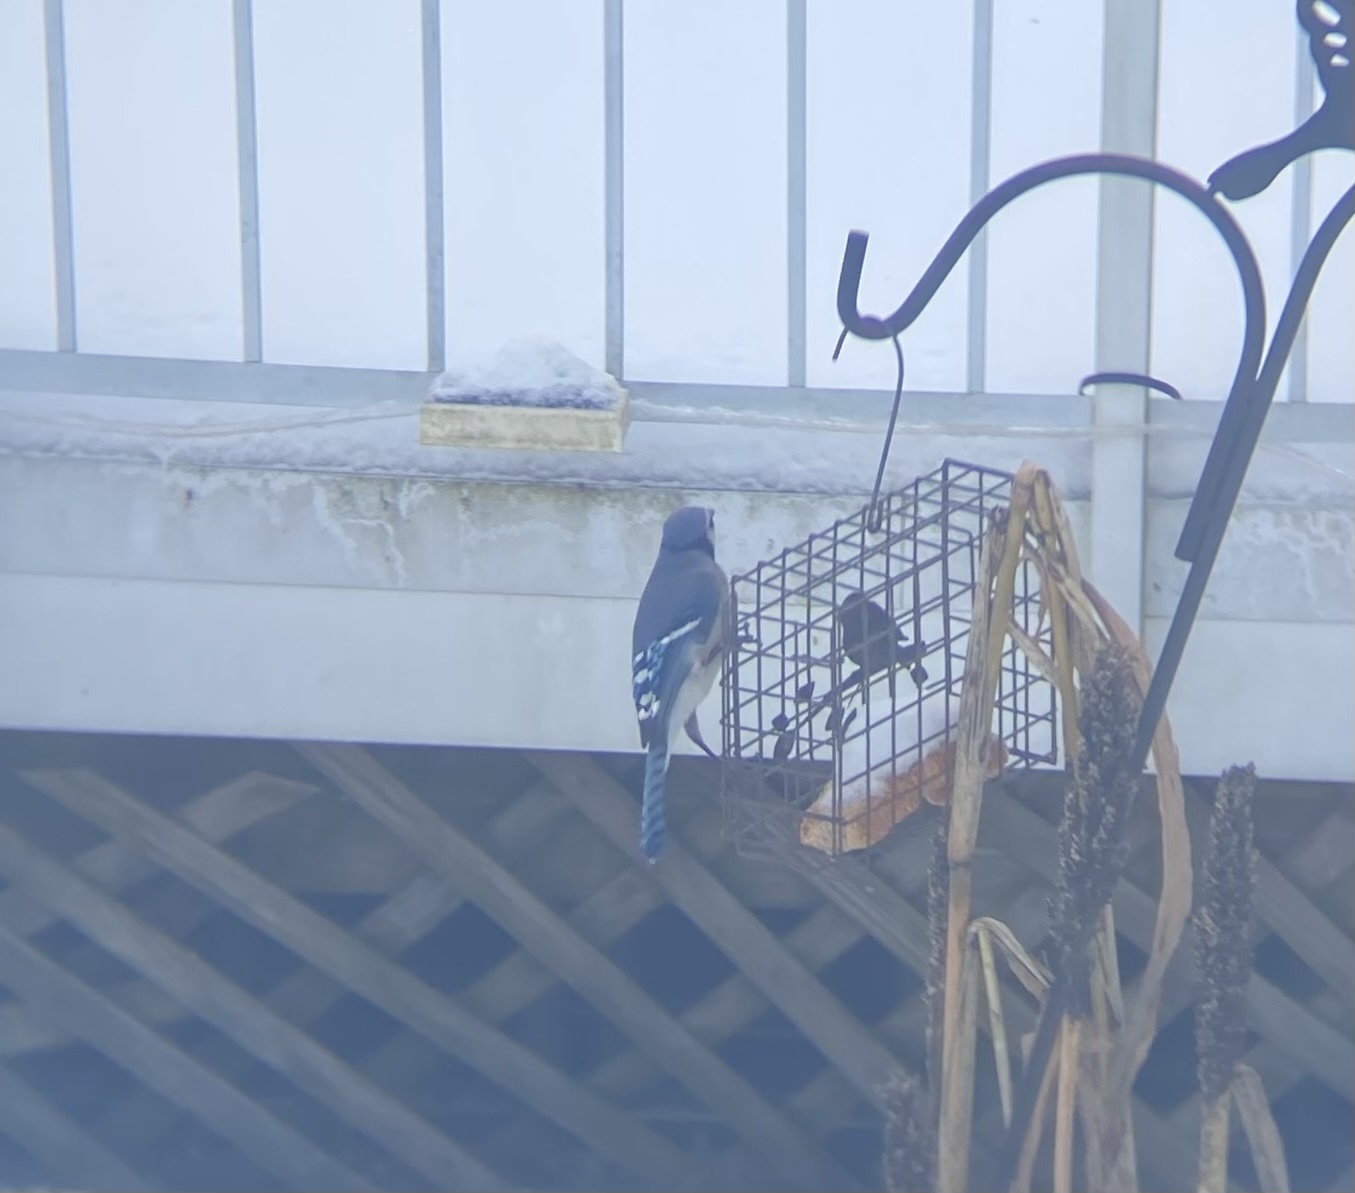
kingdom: Animalia
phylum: Chordata
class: Aves
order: Passeriformes
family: Corvidae
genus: Cyanocitta
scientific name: Cyanocitta cristata
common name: Blue jay
